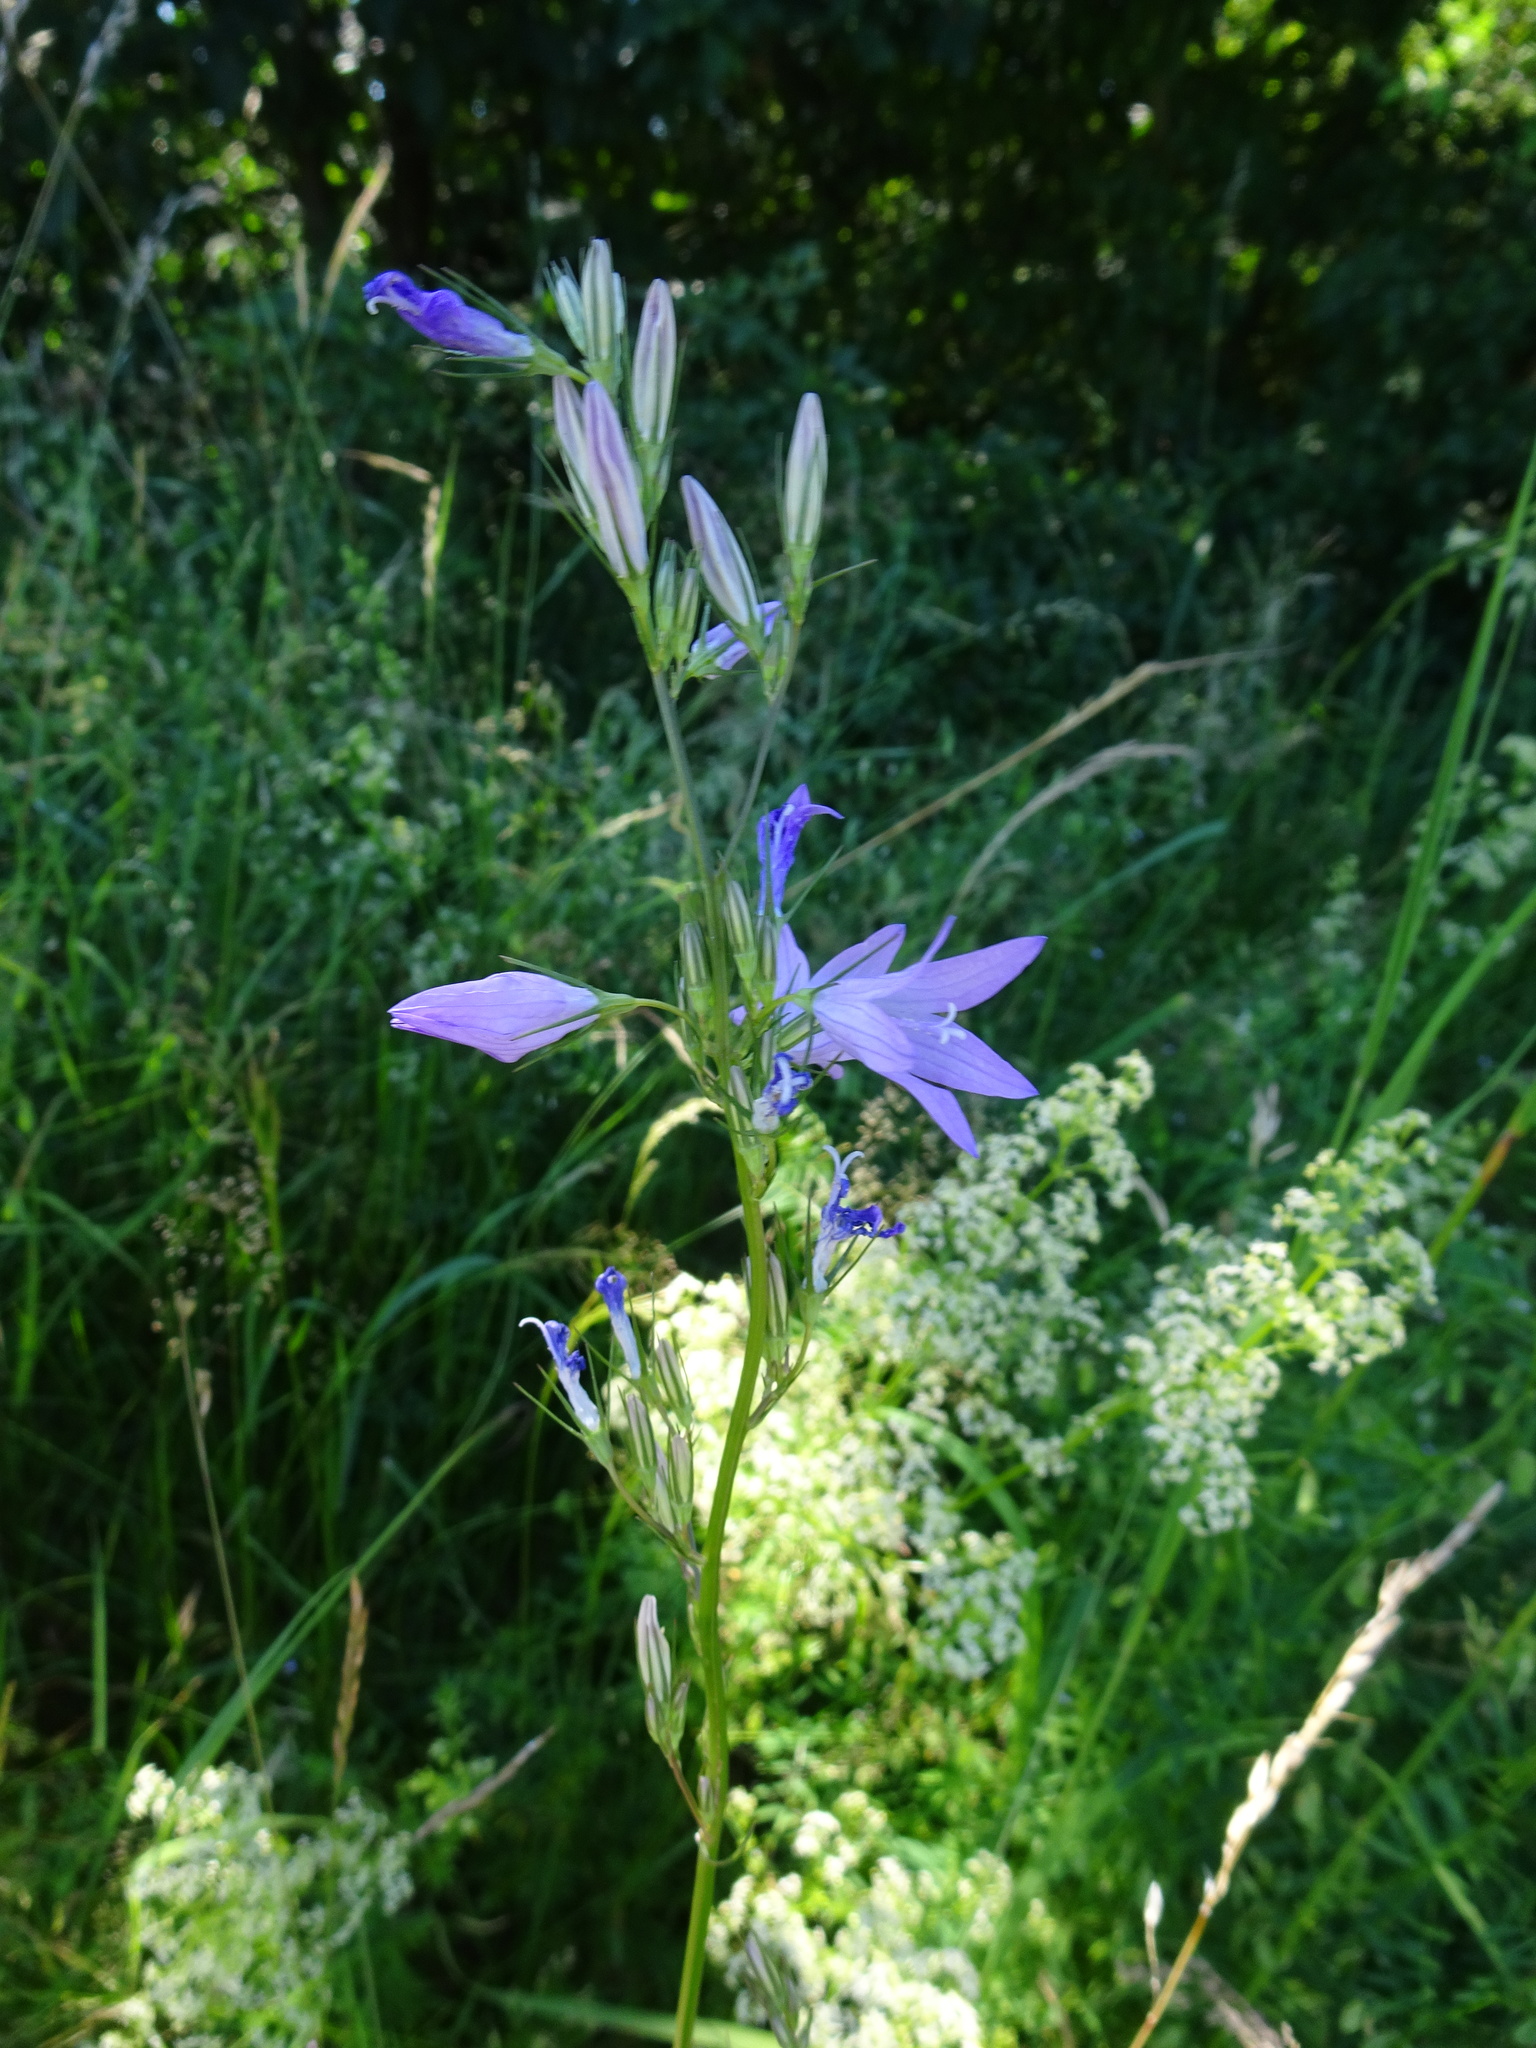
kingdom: Plantae
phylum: Tracheophyta
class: Magnoliopsida
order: Asterales
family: Campanulaceae
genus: Campanula
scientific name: Campanula rapunculus
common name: Rampion bellflower
